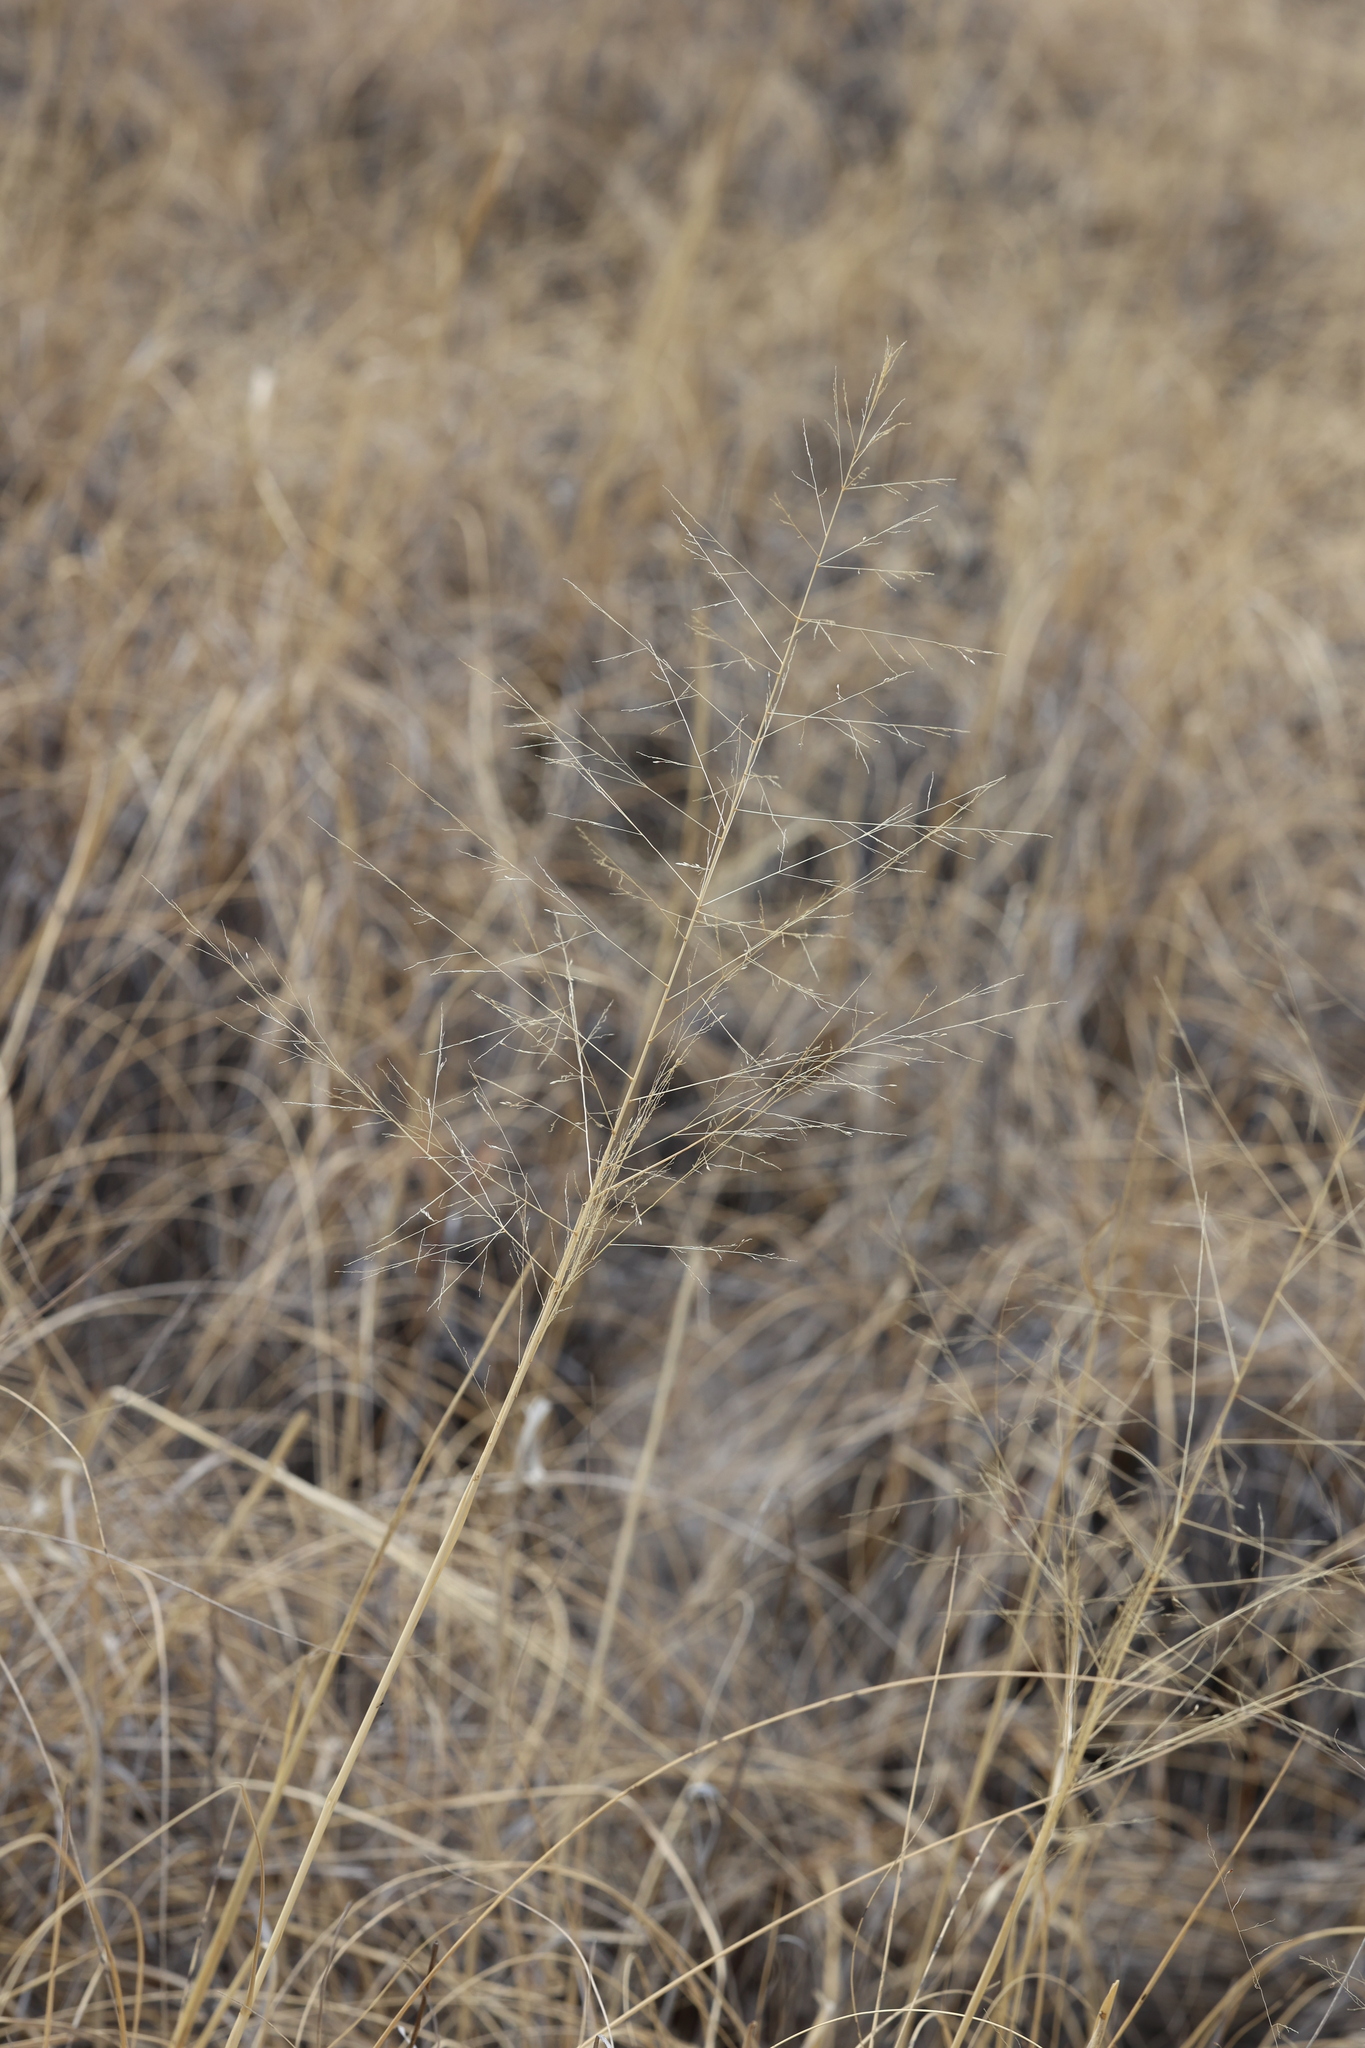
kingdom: Plantae
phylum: Tracheophyta
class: Liliopsida
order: Poales
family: Poaceae
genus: Sporobolus
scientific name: Sporobolus airoides
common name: Alkali sacaton
